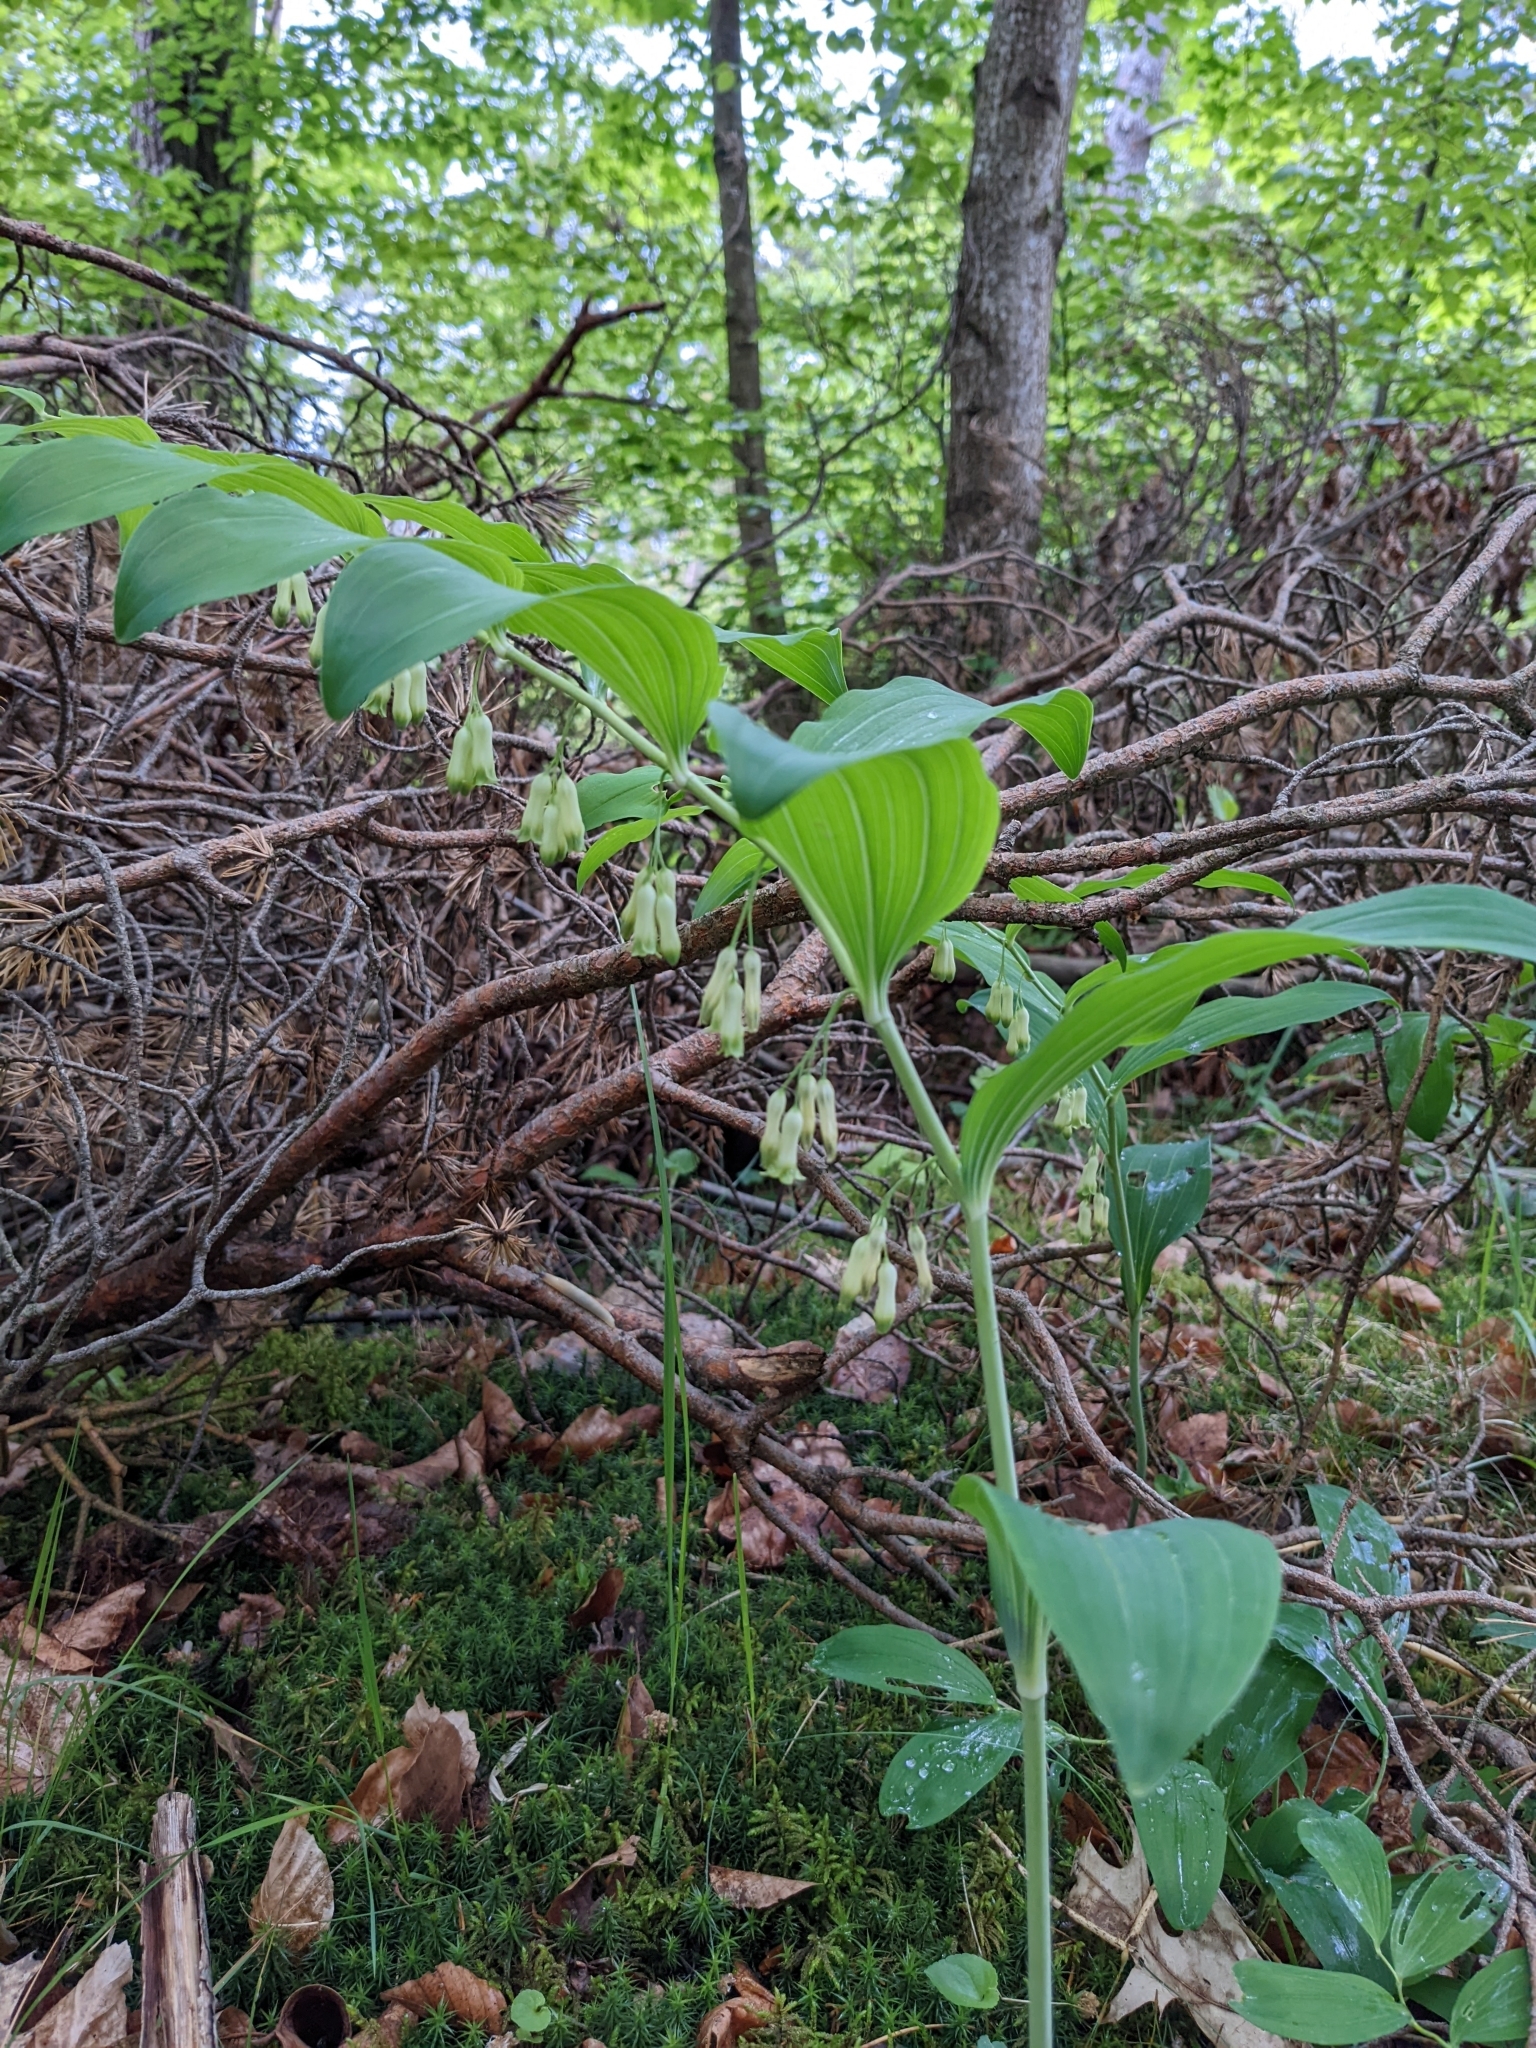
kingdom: Plantae
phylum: Tracheophyta
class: Liliopsida
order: Asparagales
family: Asparagaceae
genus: Polygonatum
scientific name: Polygonatum multiflorum
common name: Solomon's-seal
